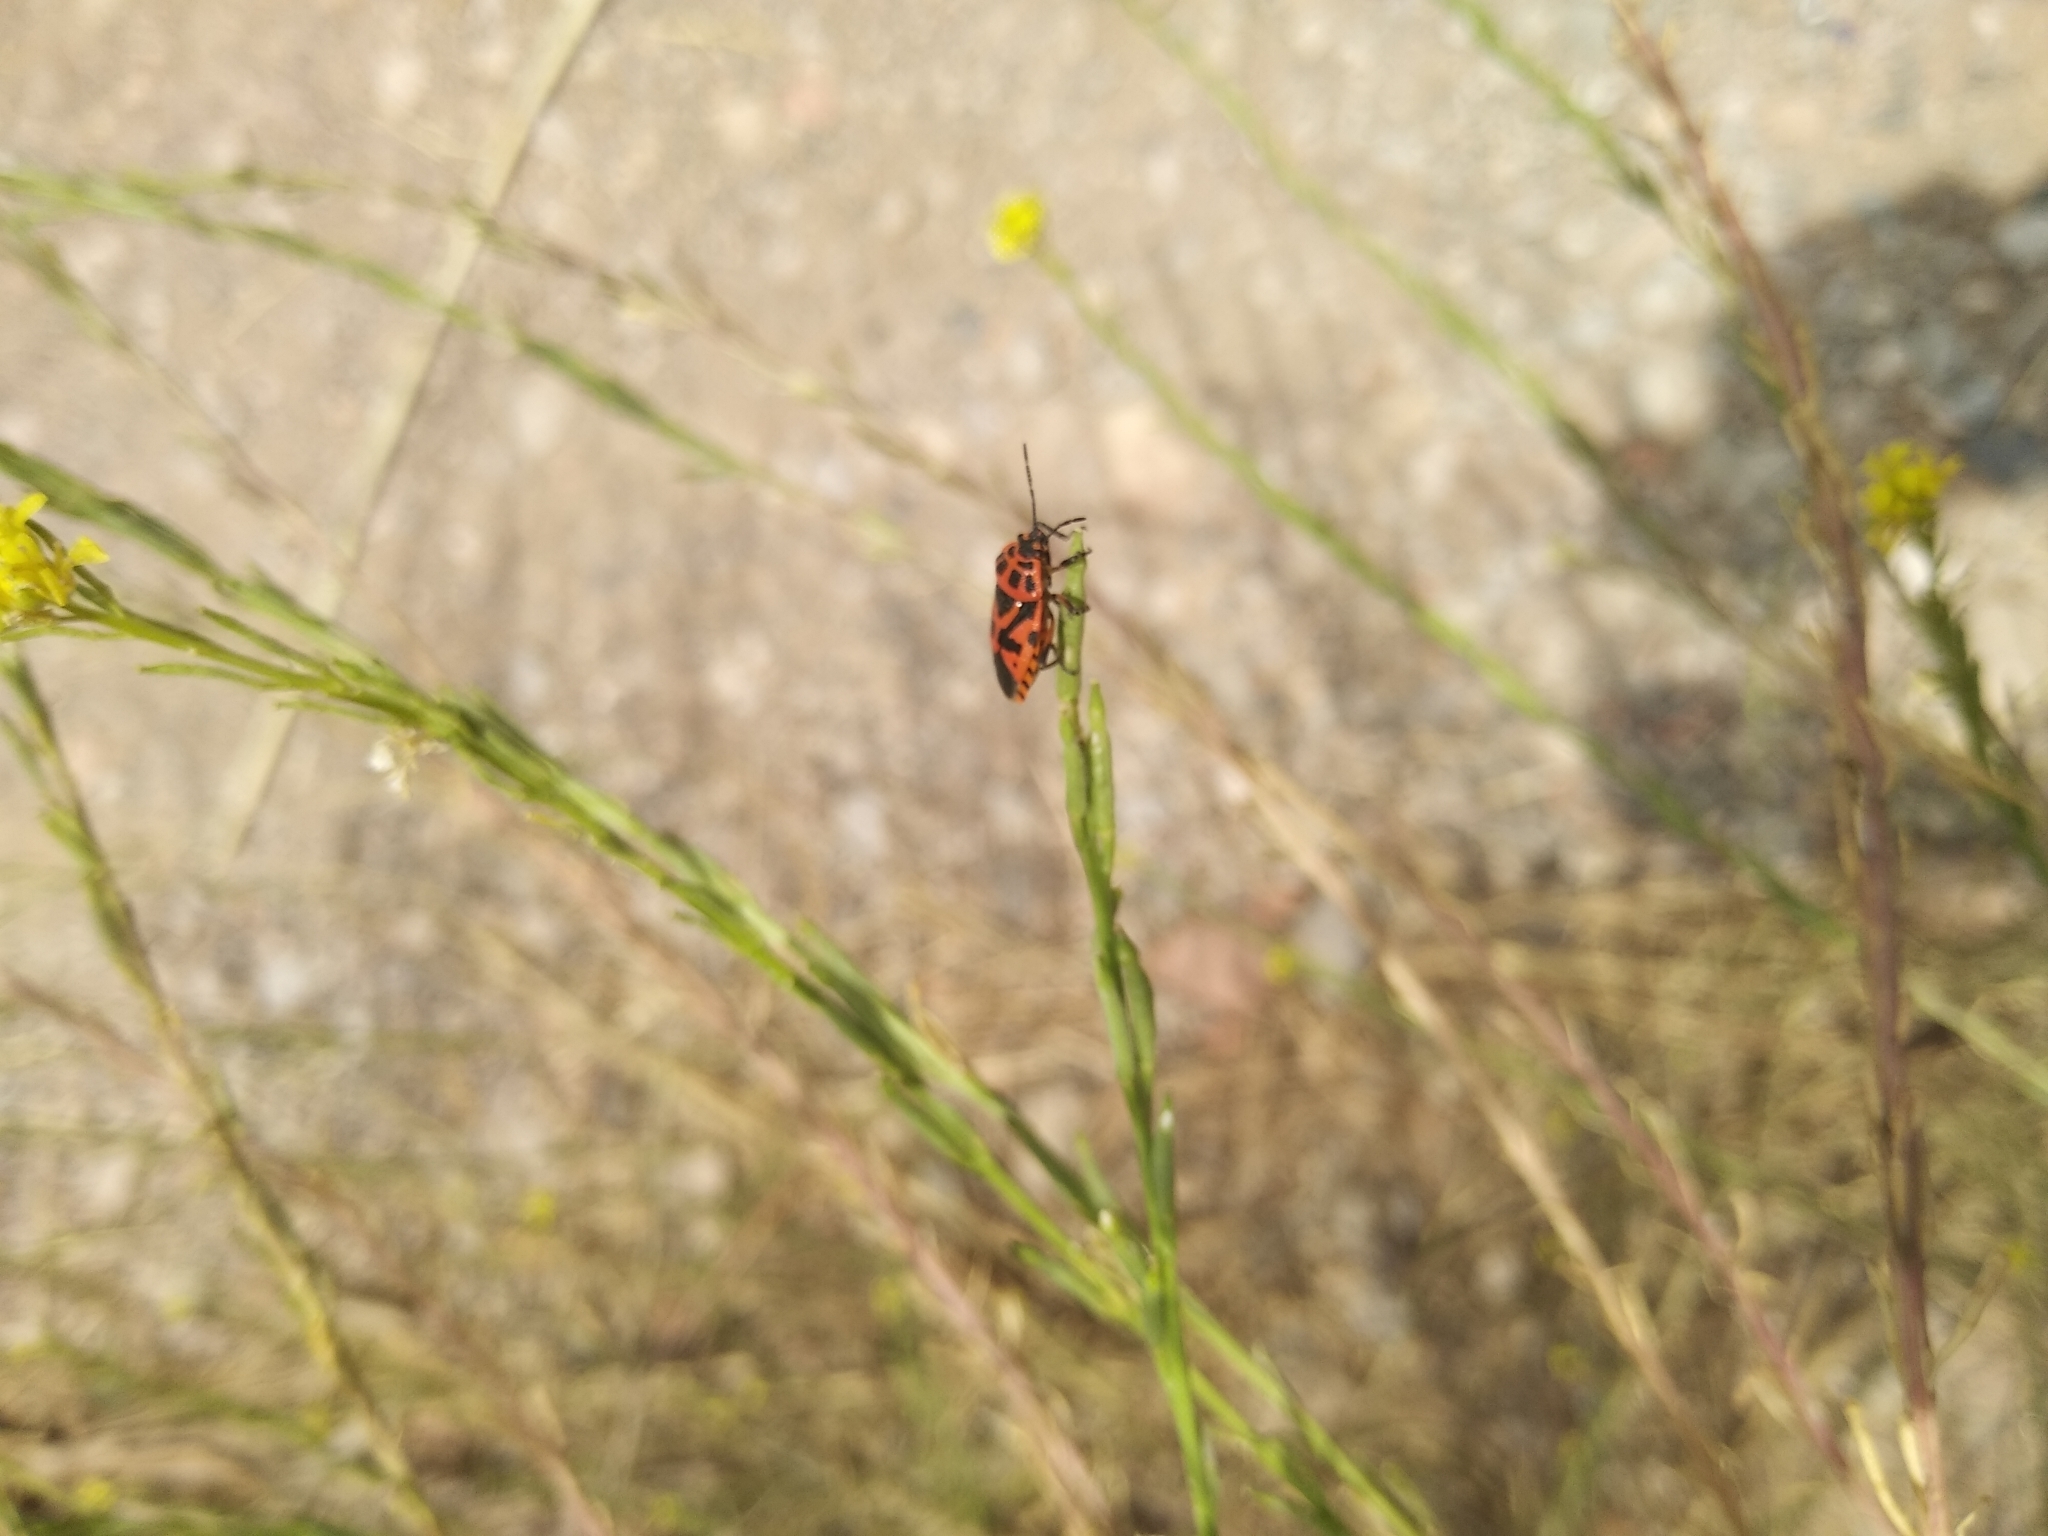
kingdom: Animalia
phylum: Arthropoda
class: Insecta
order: Hemiptera
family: Pentatomidae
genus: Eurydema
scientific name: Eurydema ventralis
